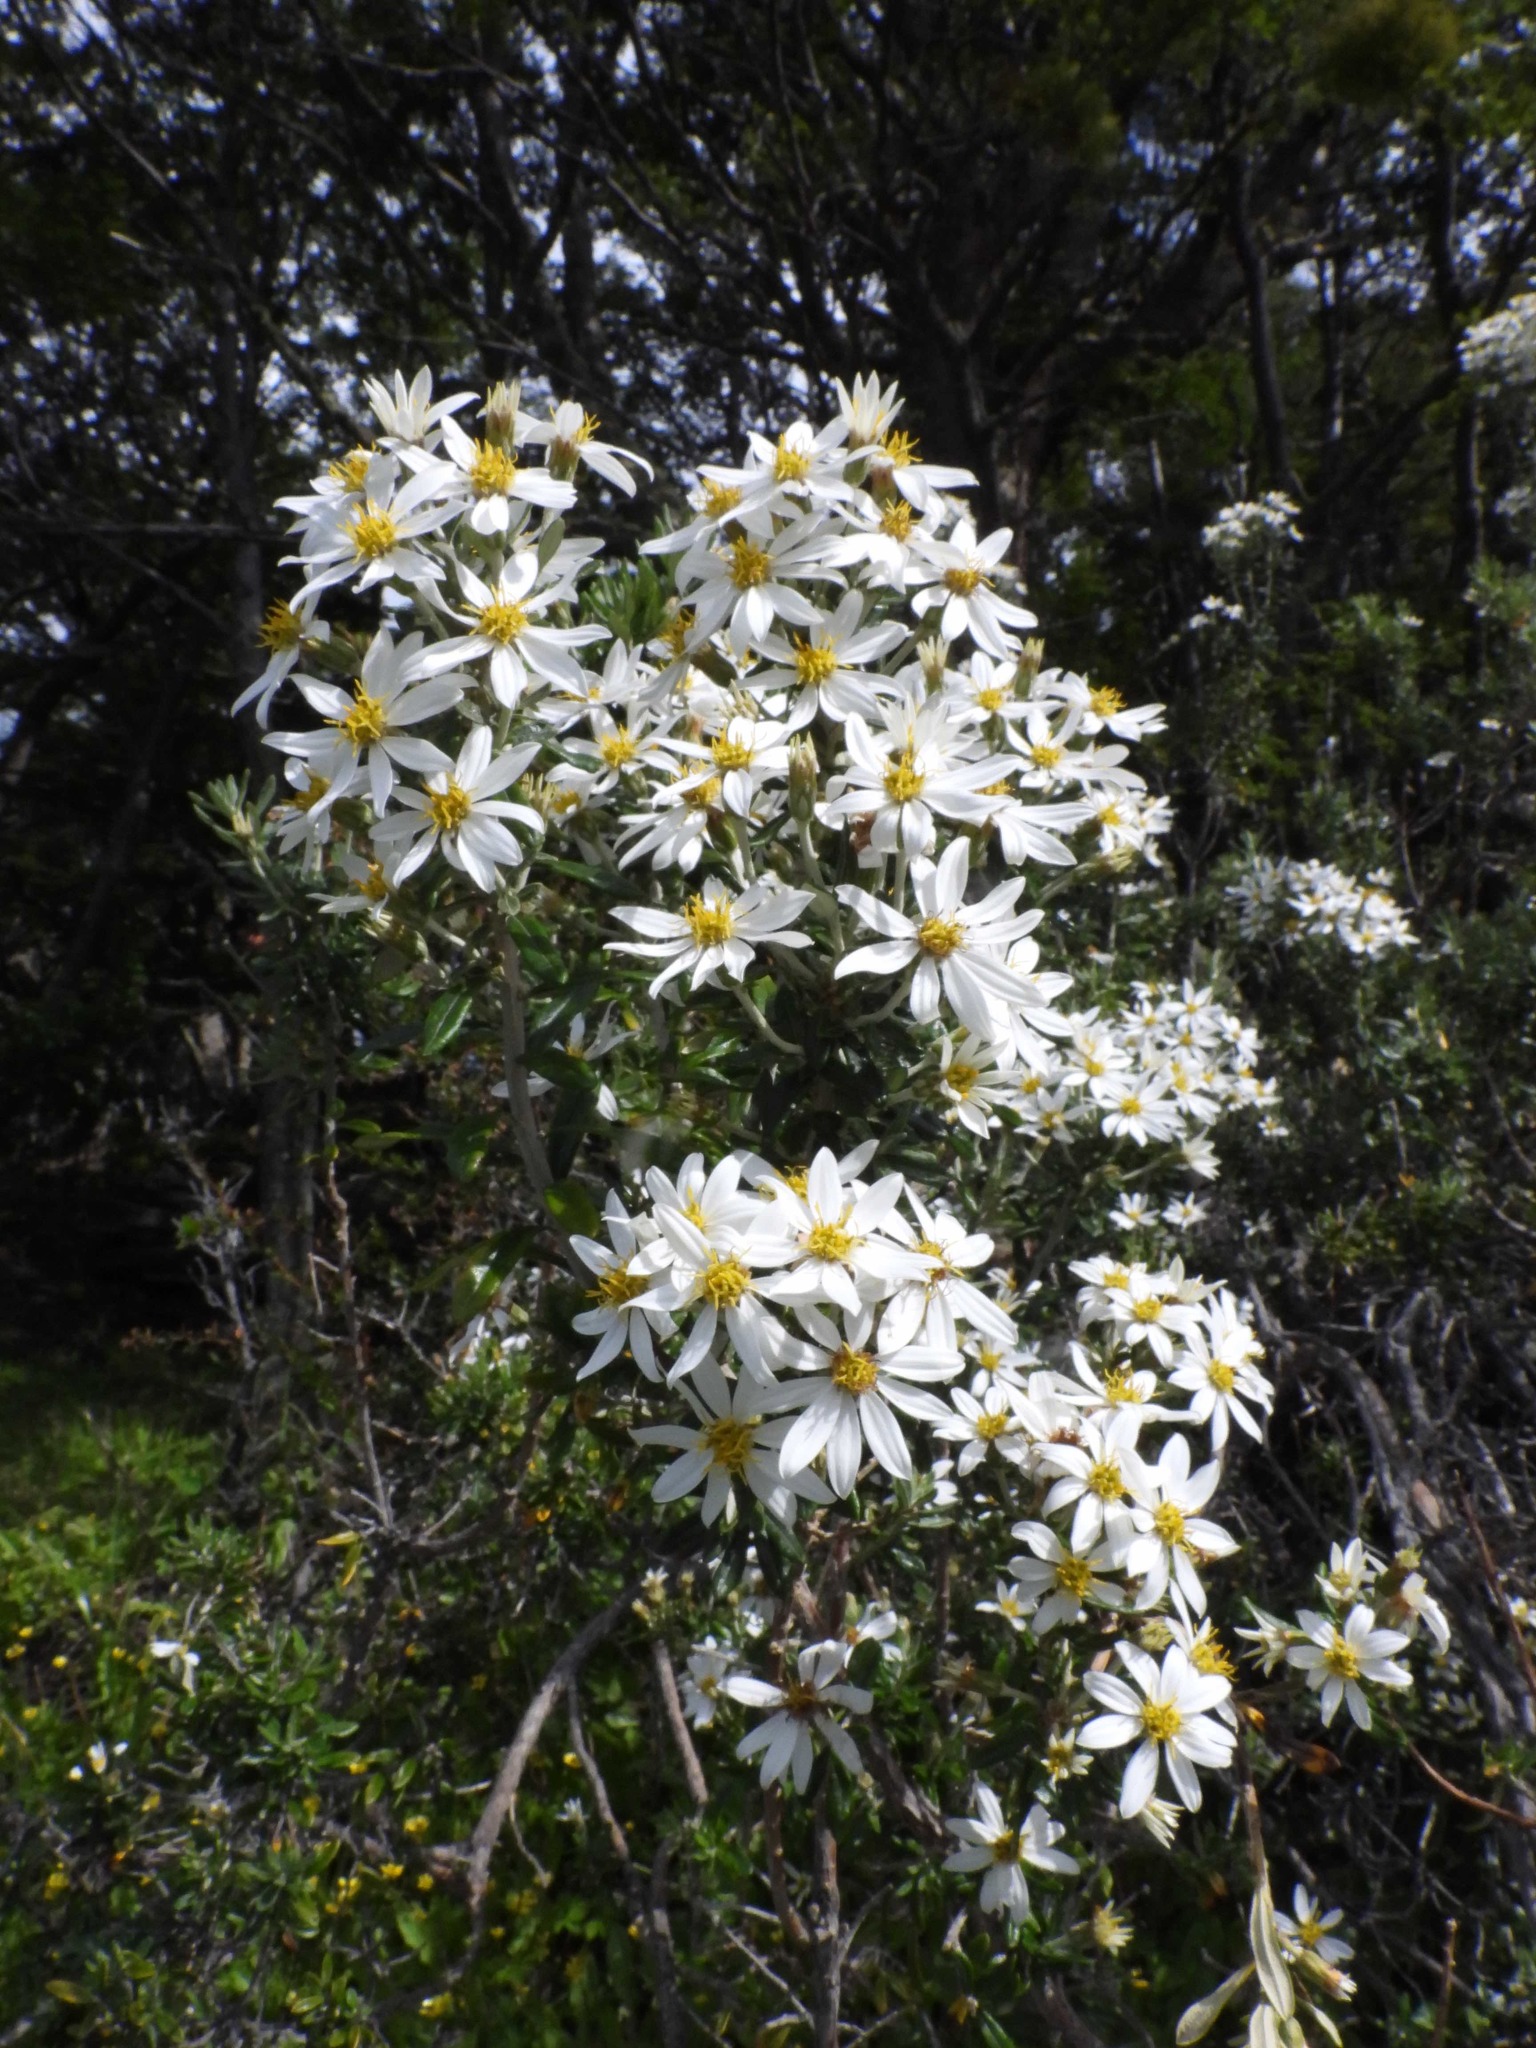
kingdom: Plantae
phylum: Tracheophyta
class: Magnoliopsida
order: Asterales
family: Asteraceae
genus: Chiliotrichum
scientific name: Chiliotrichum diffusum
